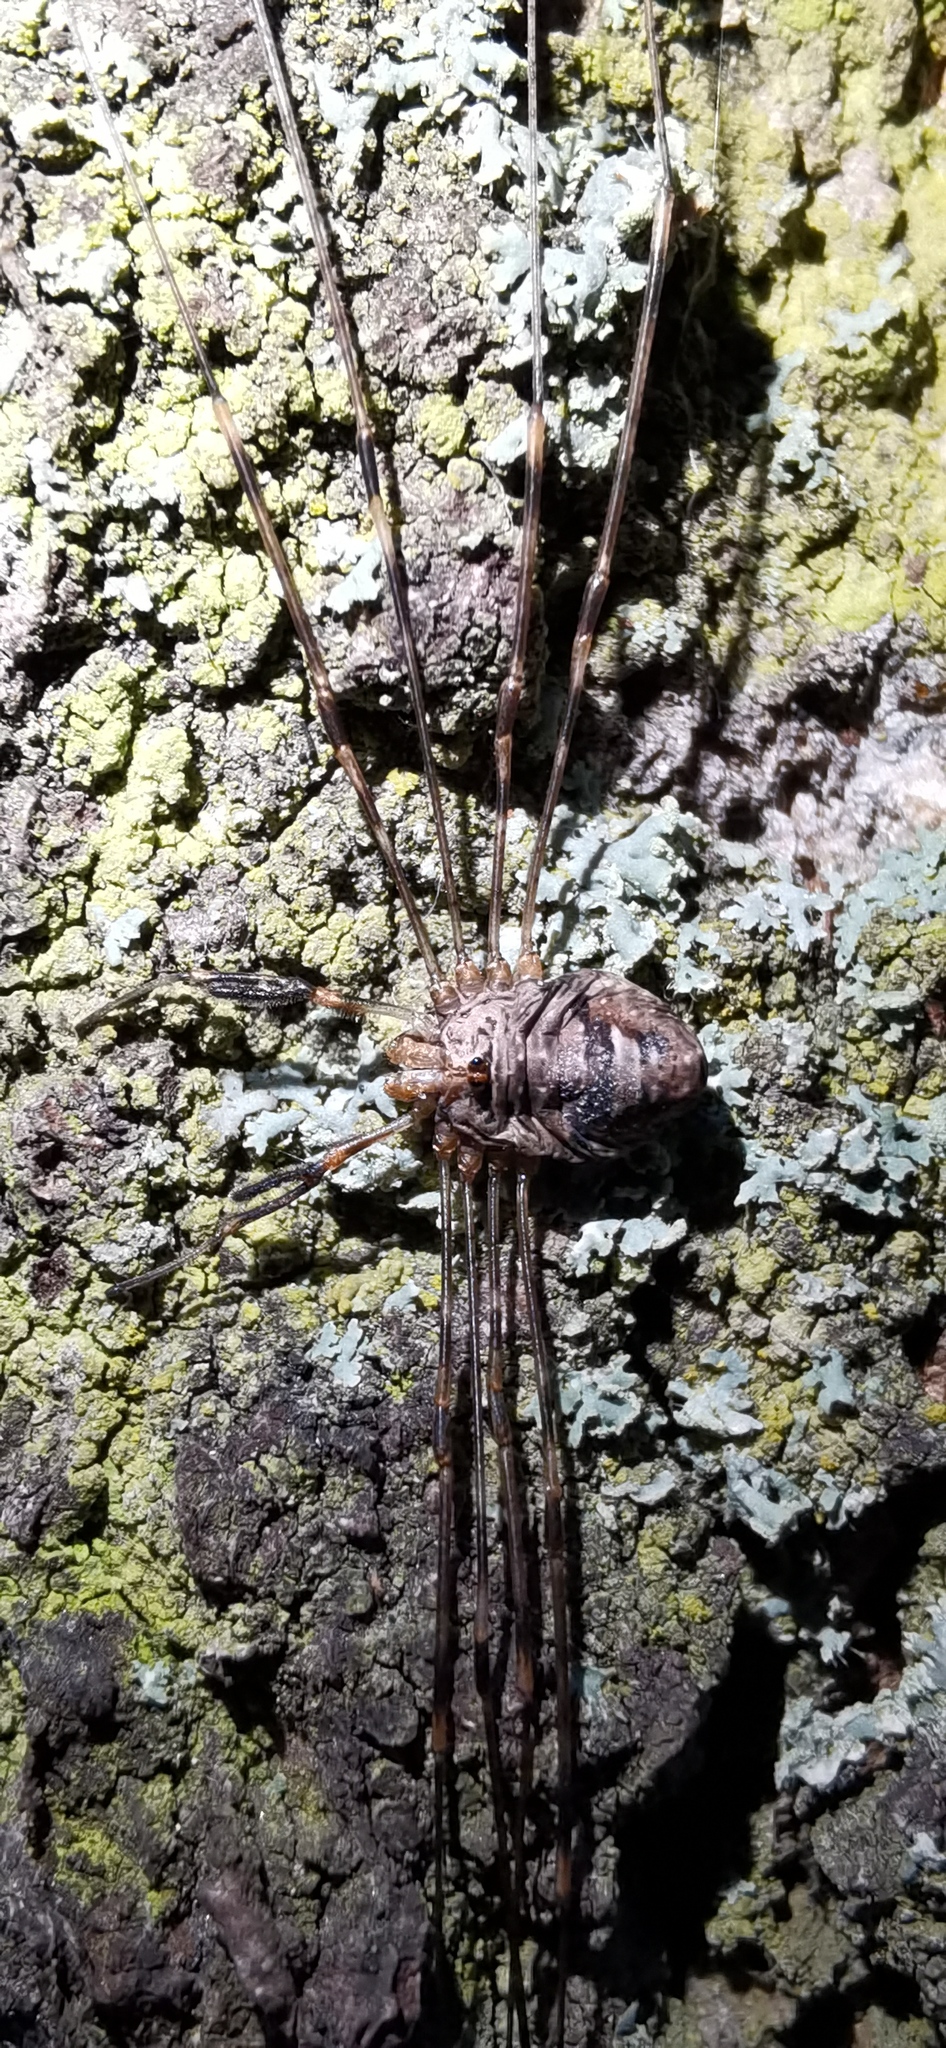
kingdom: Animalia
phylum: Arthropoda
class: Arachnida
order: Opiliones
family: Phalangiidae
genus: Dicranopalpus
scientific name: Dicranopalpus ramosus
